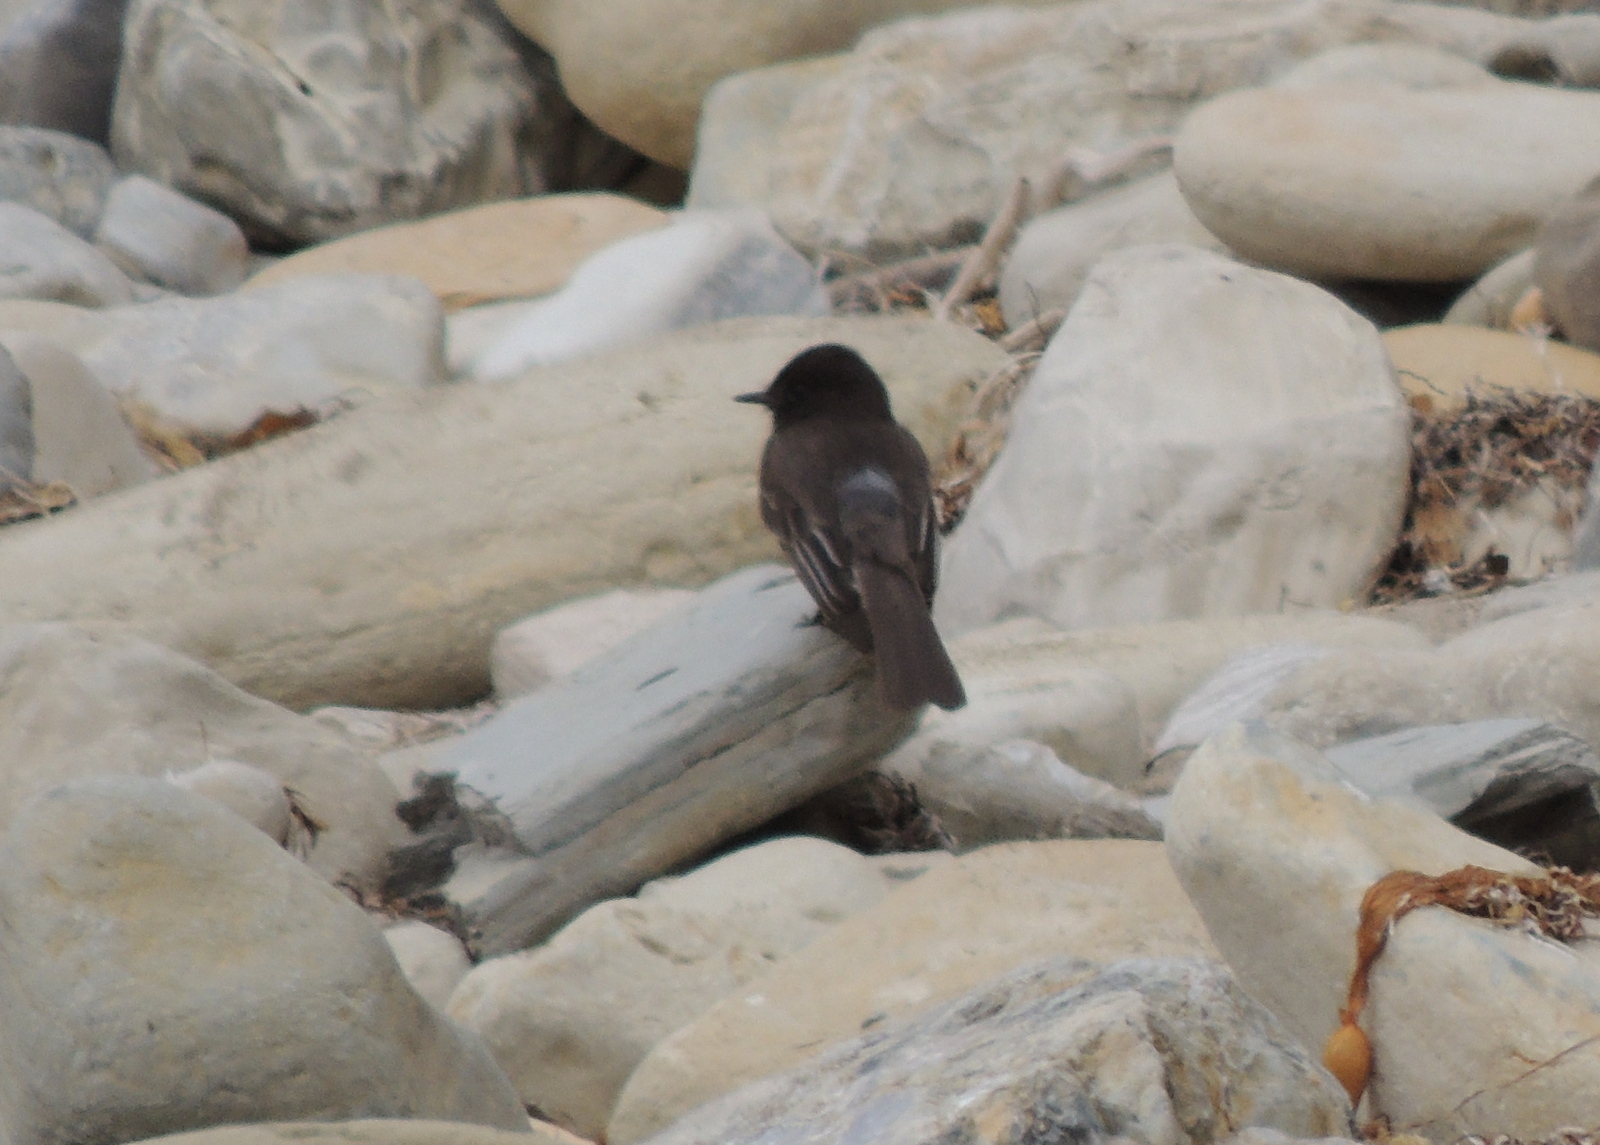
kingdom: Animalia
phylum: Chordata
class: Aves
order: Passeriformes
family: Tyrannidae
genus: Sayornis
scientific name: Sayornis nigricans
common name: Black phoebe
